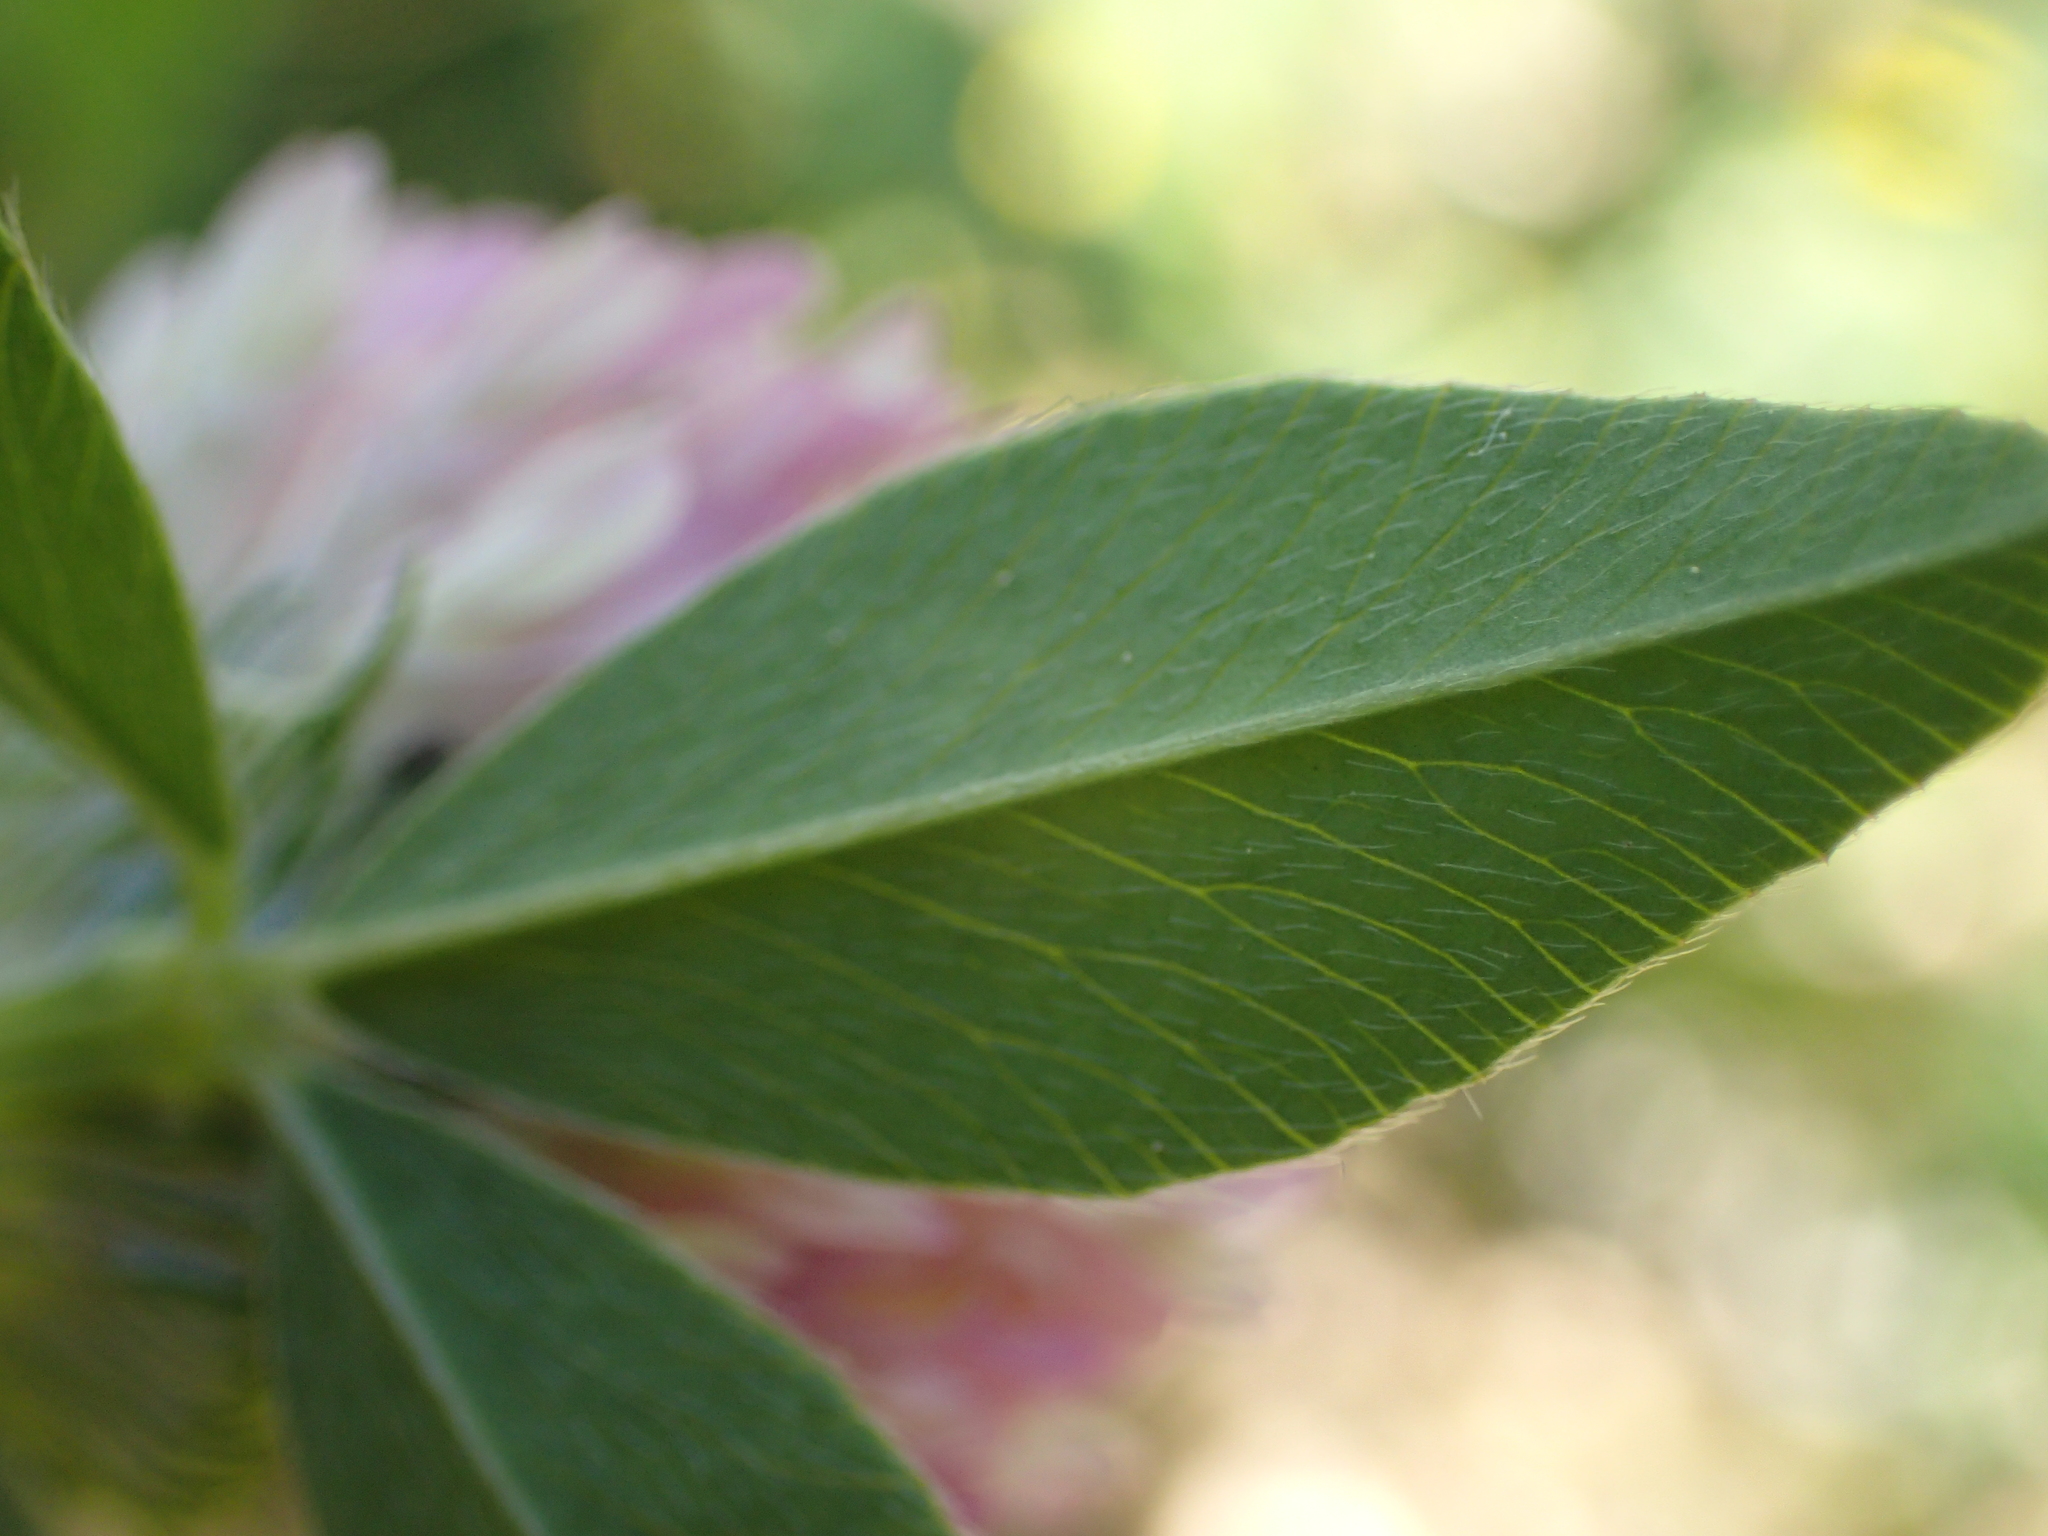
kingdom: Plantae
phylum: Tracheophyta
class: Magnoliopsida
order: Fabales
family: Fabaceae
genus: Trifolium
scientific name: Trifolium pratense
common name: Red clover
